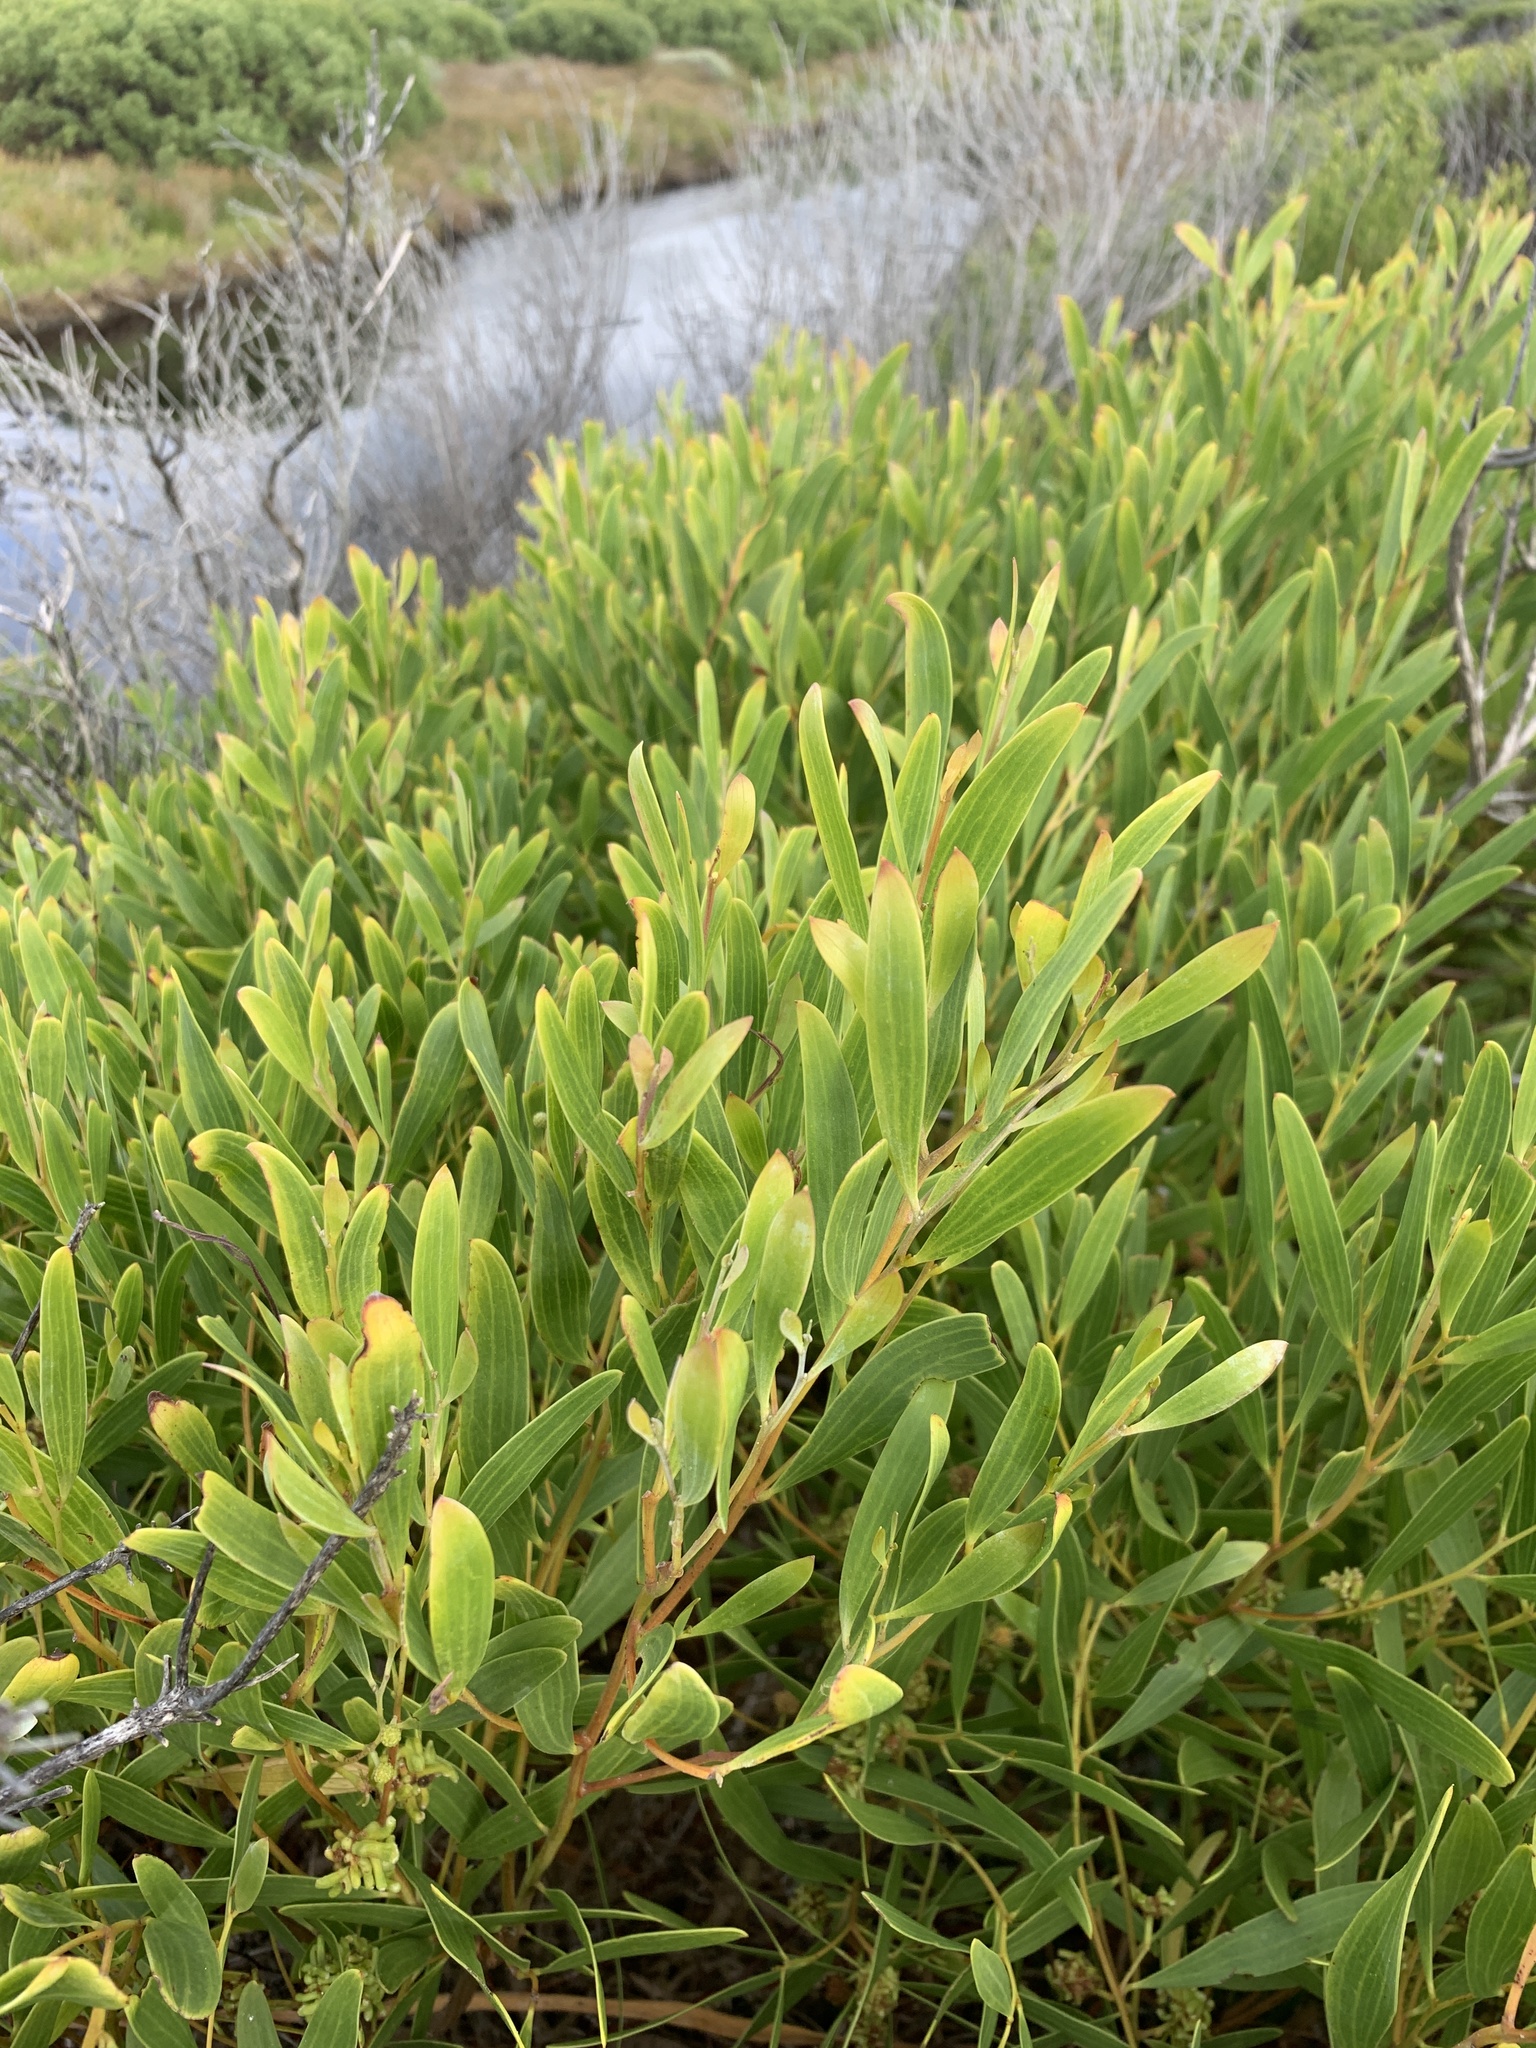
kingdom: Plantae
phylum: Tracheophyta
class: Magnoliopsida
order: Fabales
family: Fabaceae
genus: Acacia
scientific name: Acacia cyclops
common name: Coastal wattle
